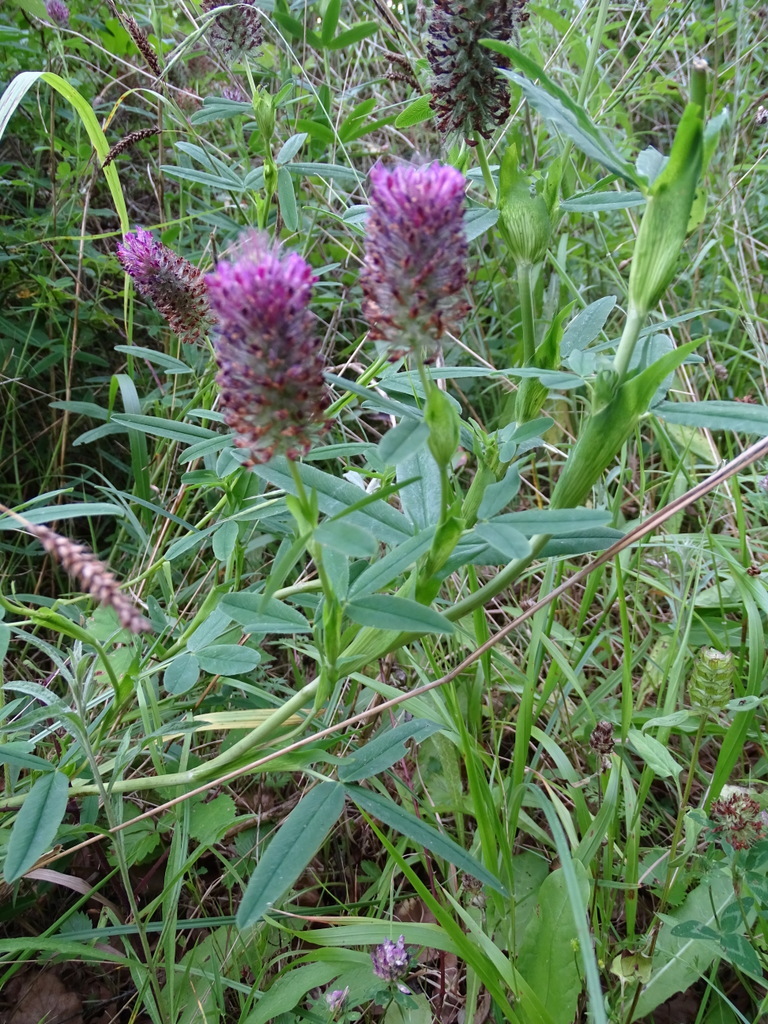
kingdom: Plantae
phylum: Tracheophyta
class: Magnoliopsida
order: Fabales
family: Fabaceae
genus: Trifolium
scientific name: Trifolium rubens
